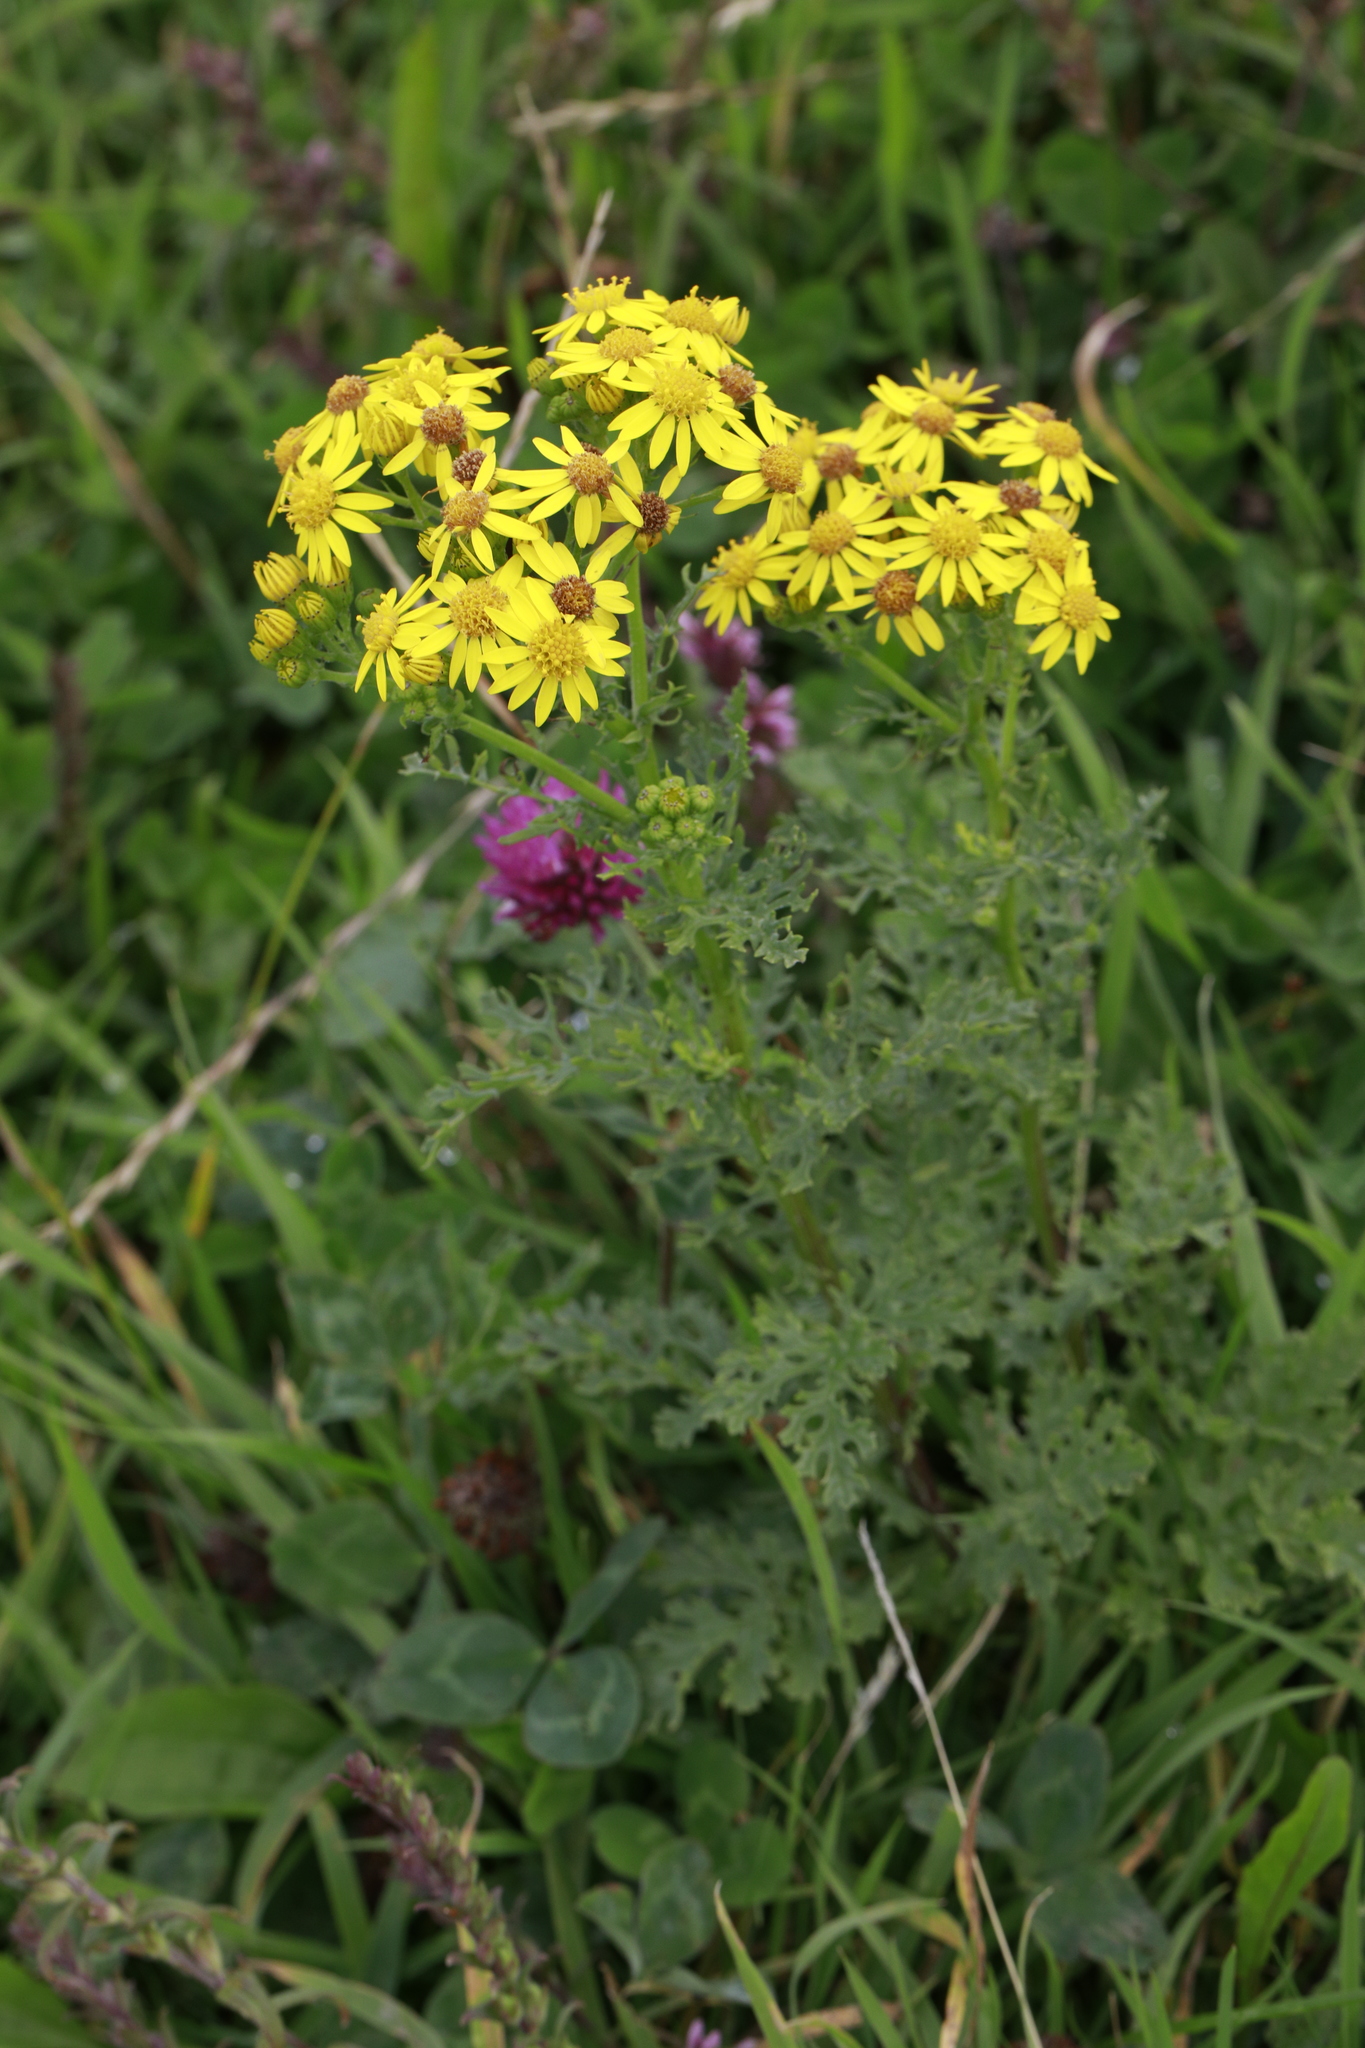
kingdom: Plantae
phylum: Tracheophyta
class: Magnoliopsida
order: Asterales
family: Asteraceae
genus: Jacobaea
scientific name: Jacobaea vulgaris
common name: Stinking willie
